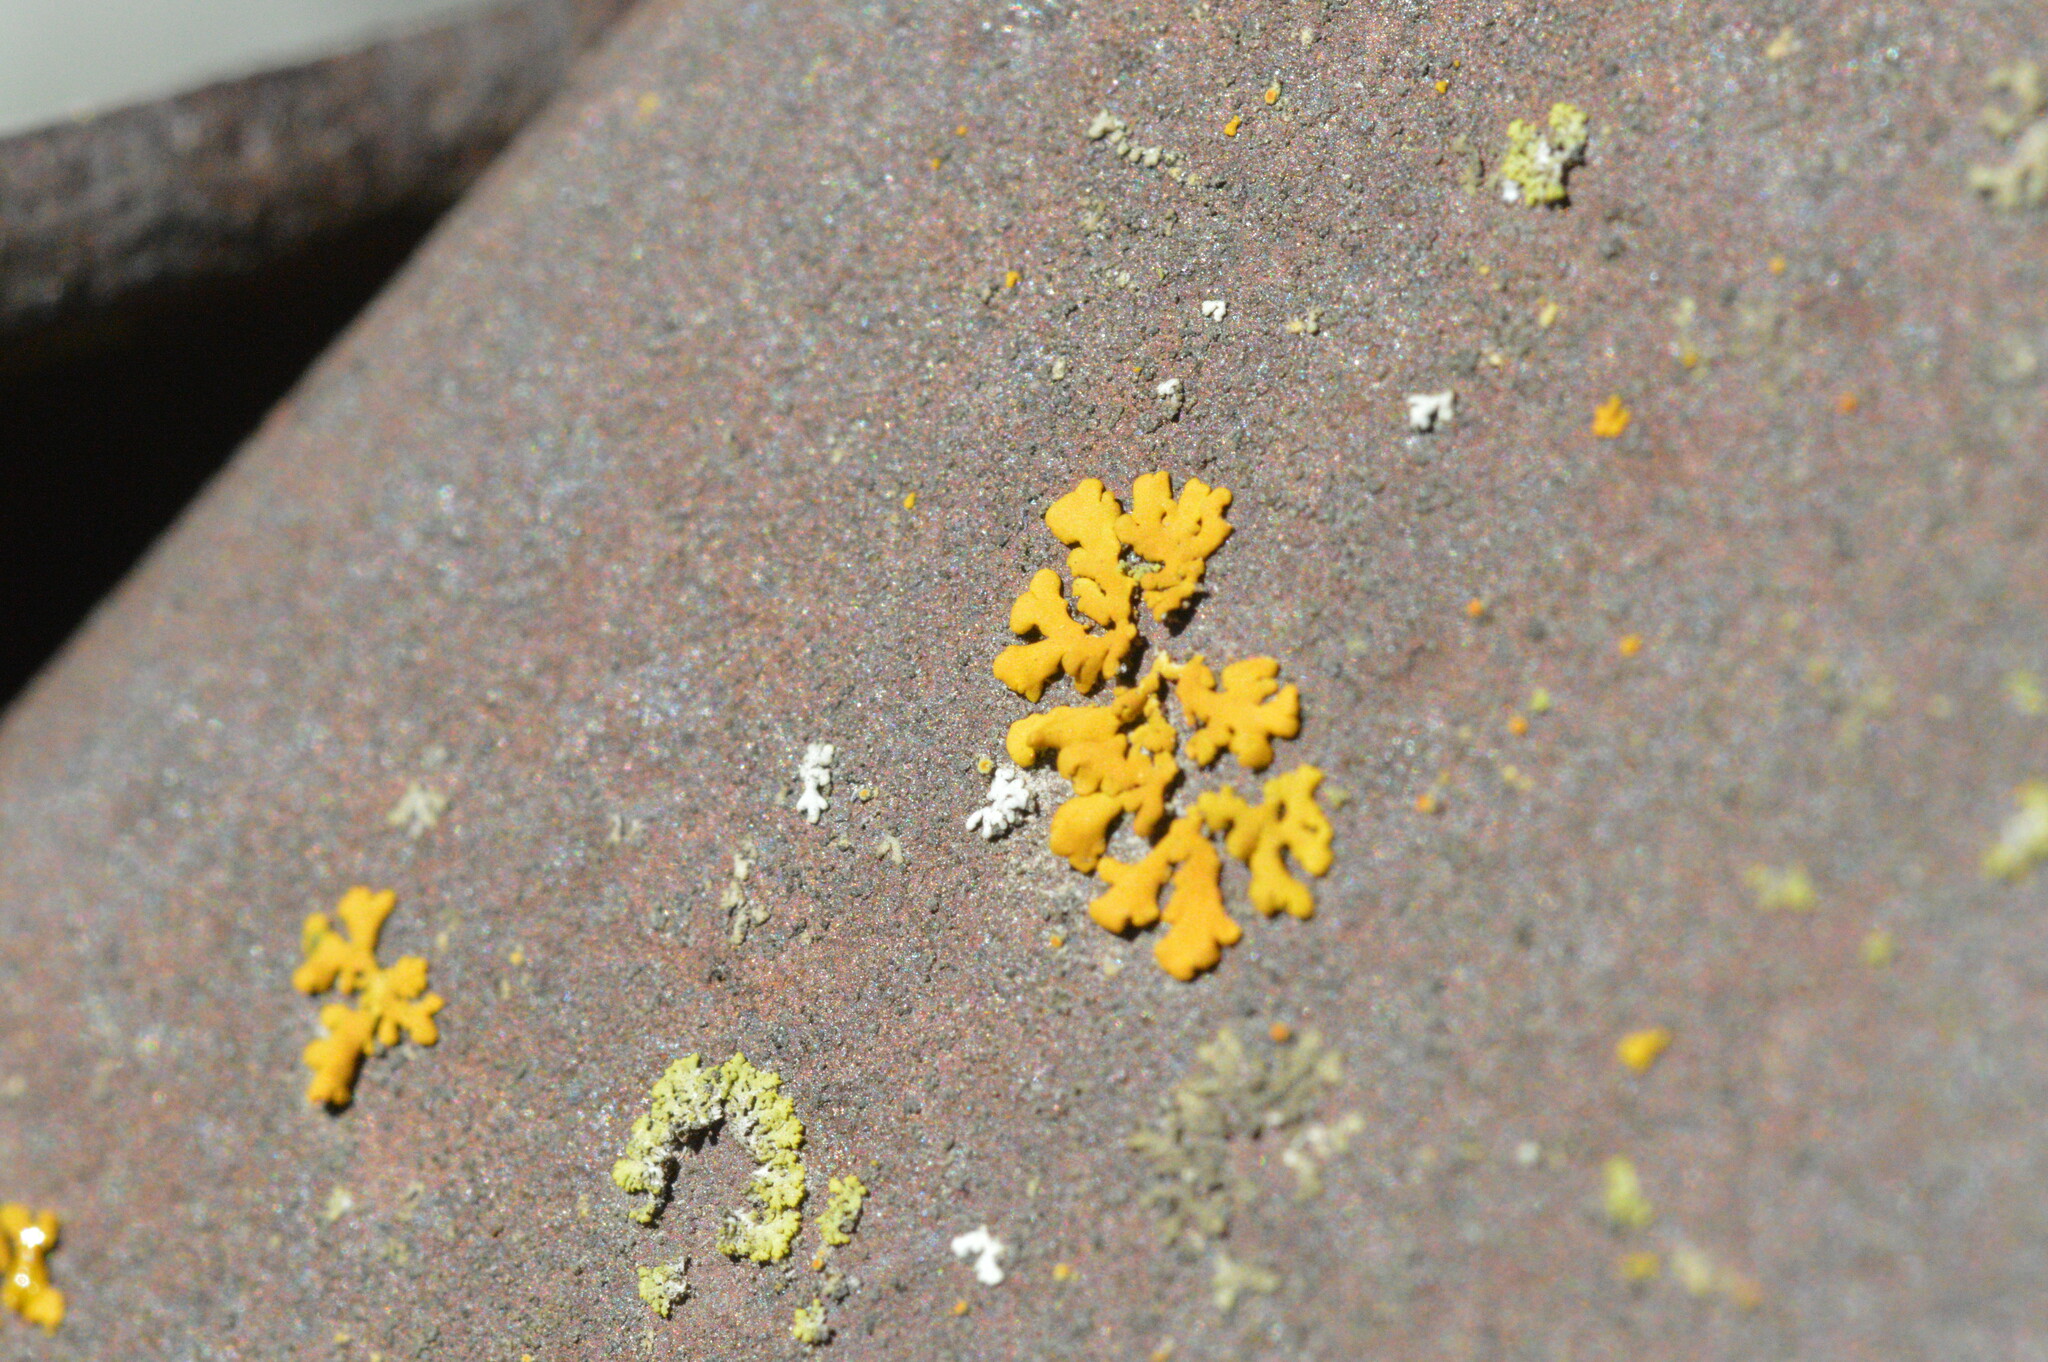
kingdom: Fungi
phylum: Ascomycota
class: Lecanoromycetes
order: Teloschistales
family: Teloschistaceae
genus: Gallowayella
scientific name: Gallowayella weberi
